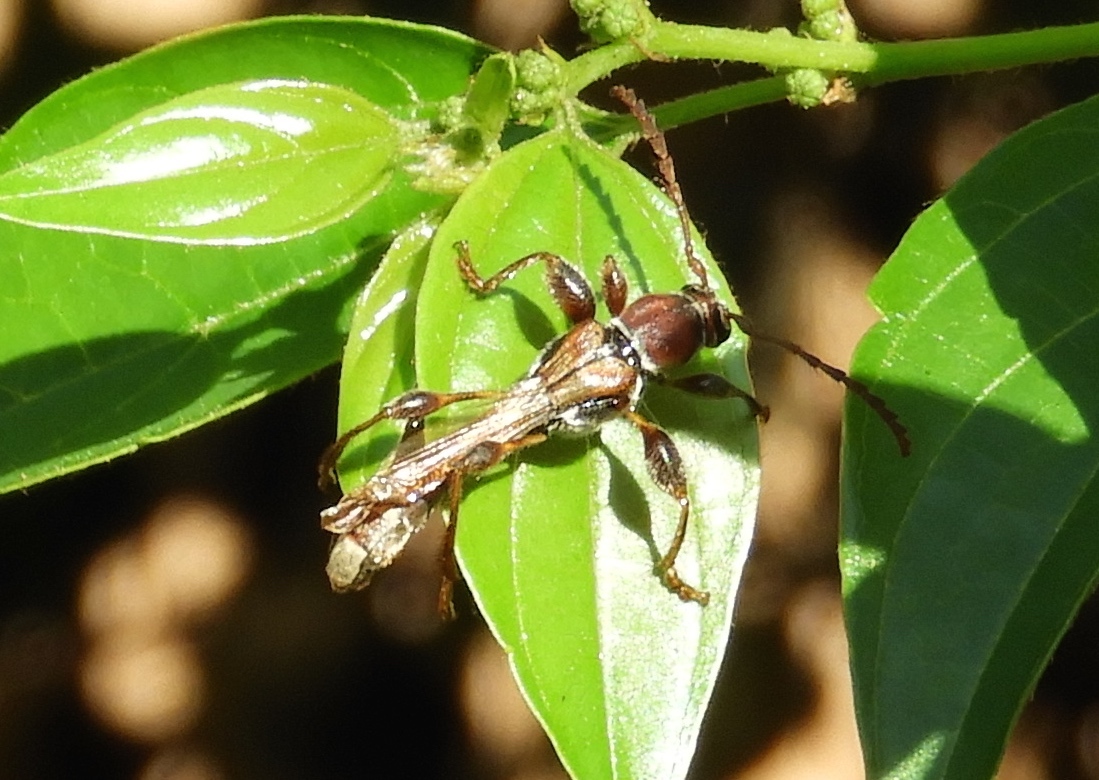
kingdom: Animalia
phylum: Arthropoda
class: Insecta
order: Coleoptera
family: Cerambycidae
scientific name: Cerambycidae
